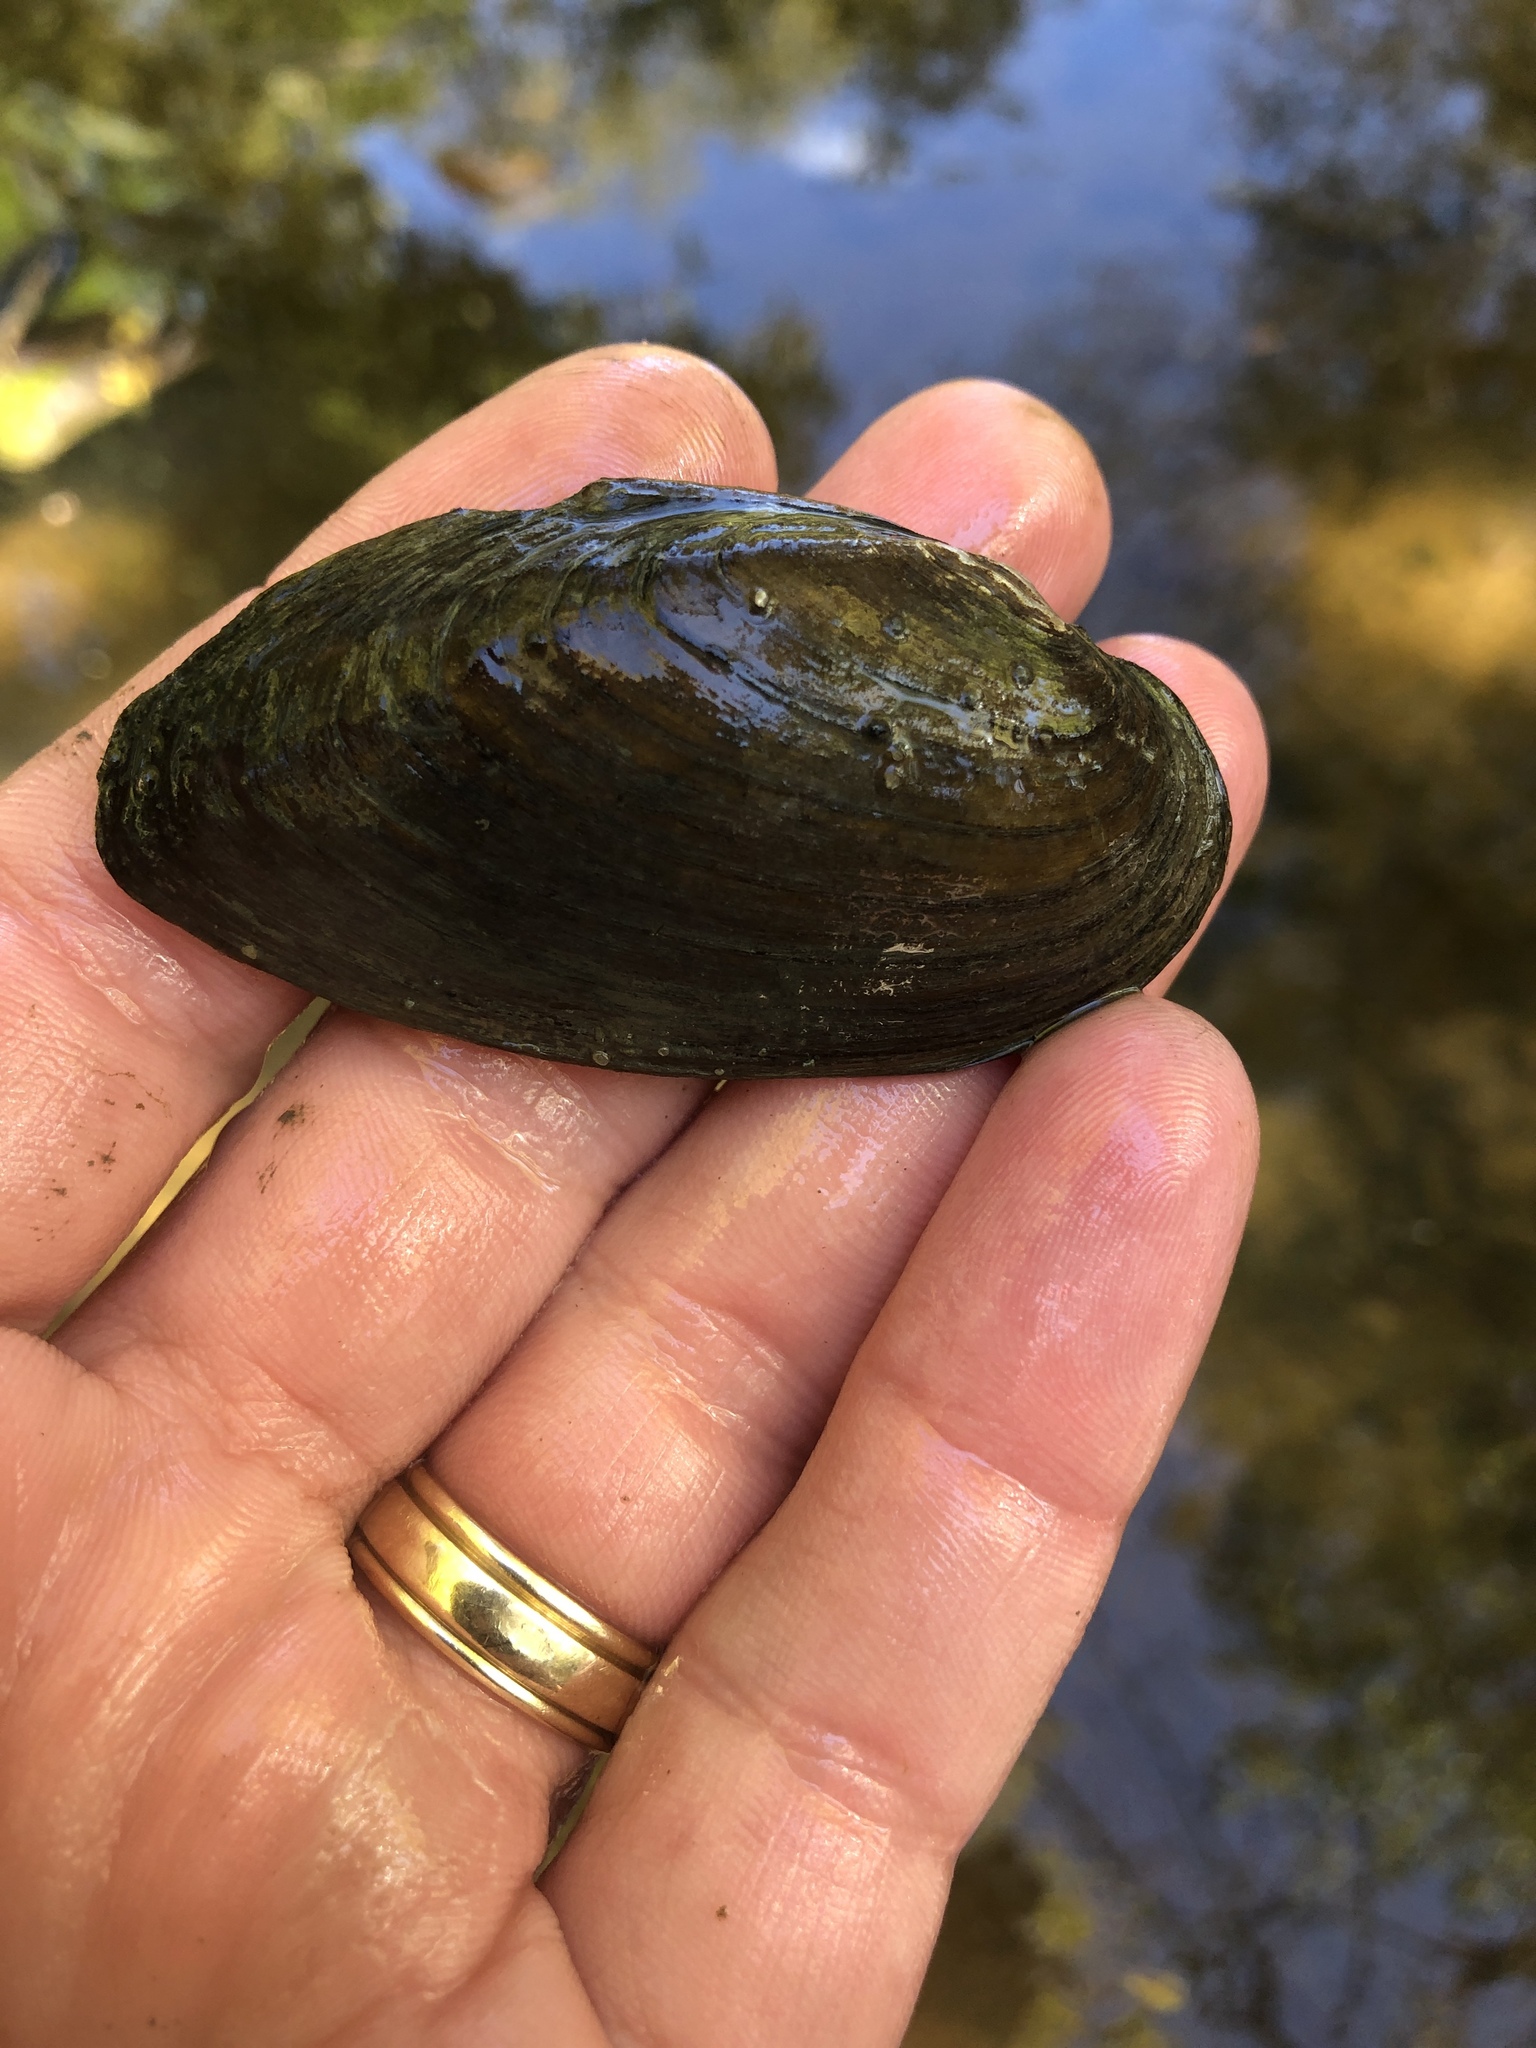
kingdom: Animalia
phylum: Mollusca
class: Bivalvia
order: Unionida
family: Unionidae
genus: Eurynia
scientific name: Eurynia dilatata
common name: Spike
